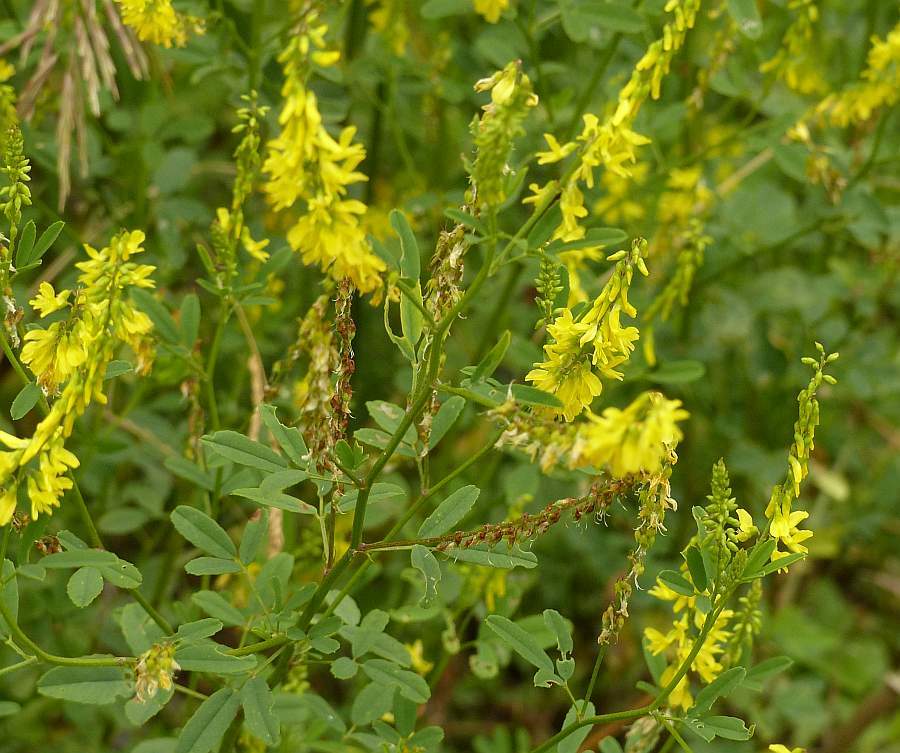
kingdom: Plantae
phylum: Tracheophyta
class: Magnoliopsida
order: Fabales
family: Fabaceae
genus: Melilotus
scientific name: Melilotus officinalis
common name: Sweetclover
